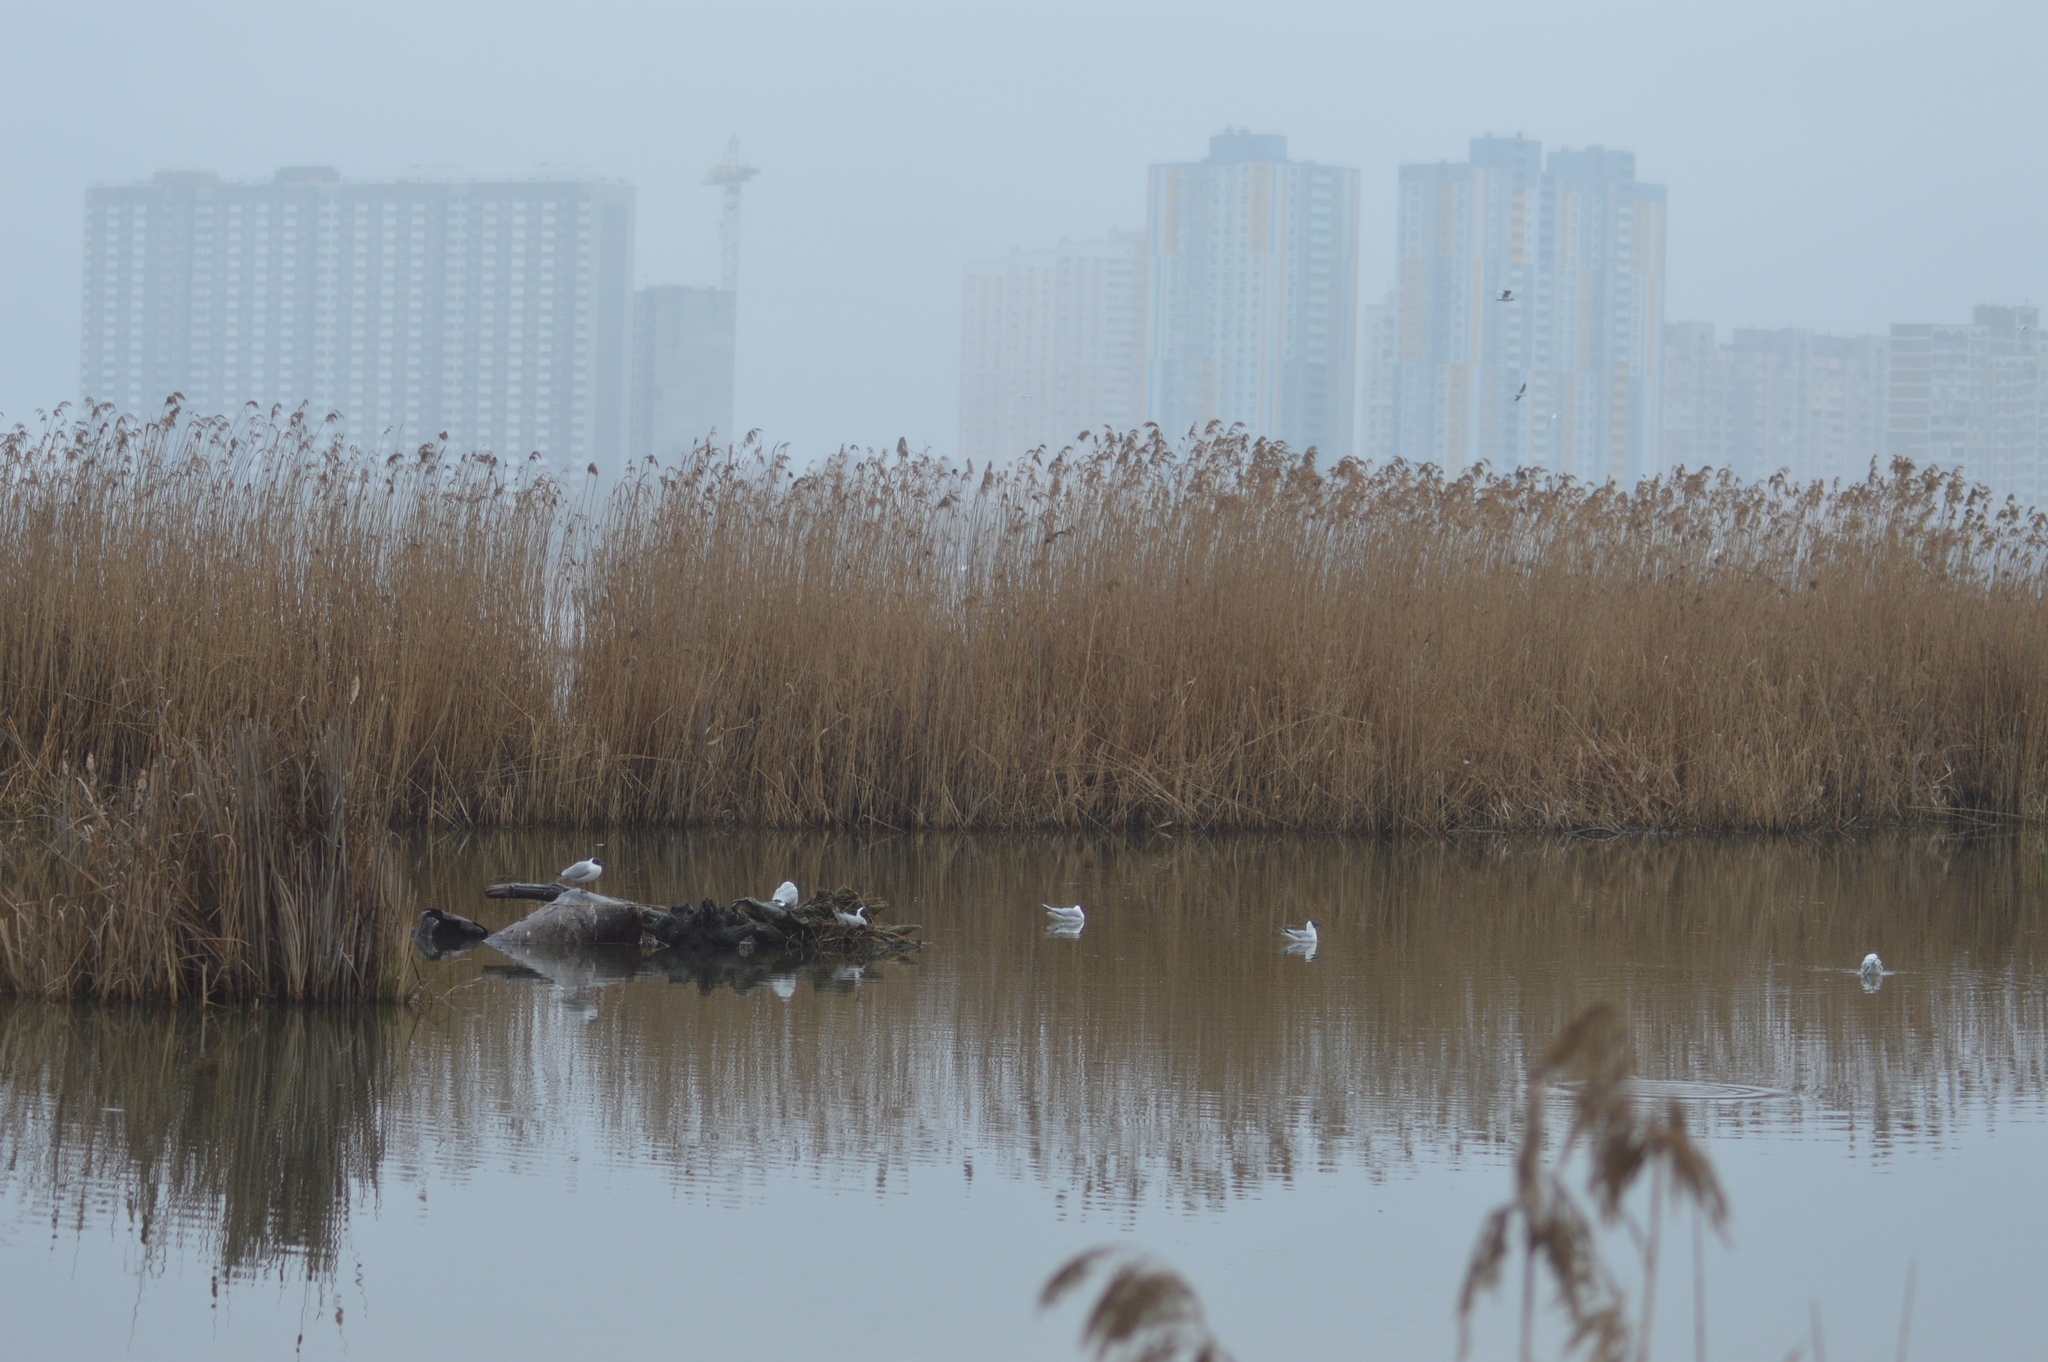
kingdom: Animalia
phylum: Chordata
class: Aves
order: Charadriiformes
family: Laridae
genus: Chroicocephalus
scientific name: Chroicocephalus ridibundus
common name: Black-headed gull
